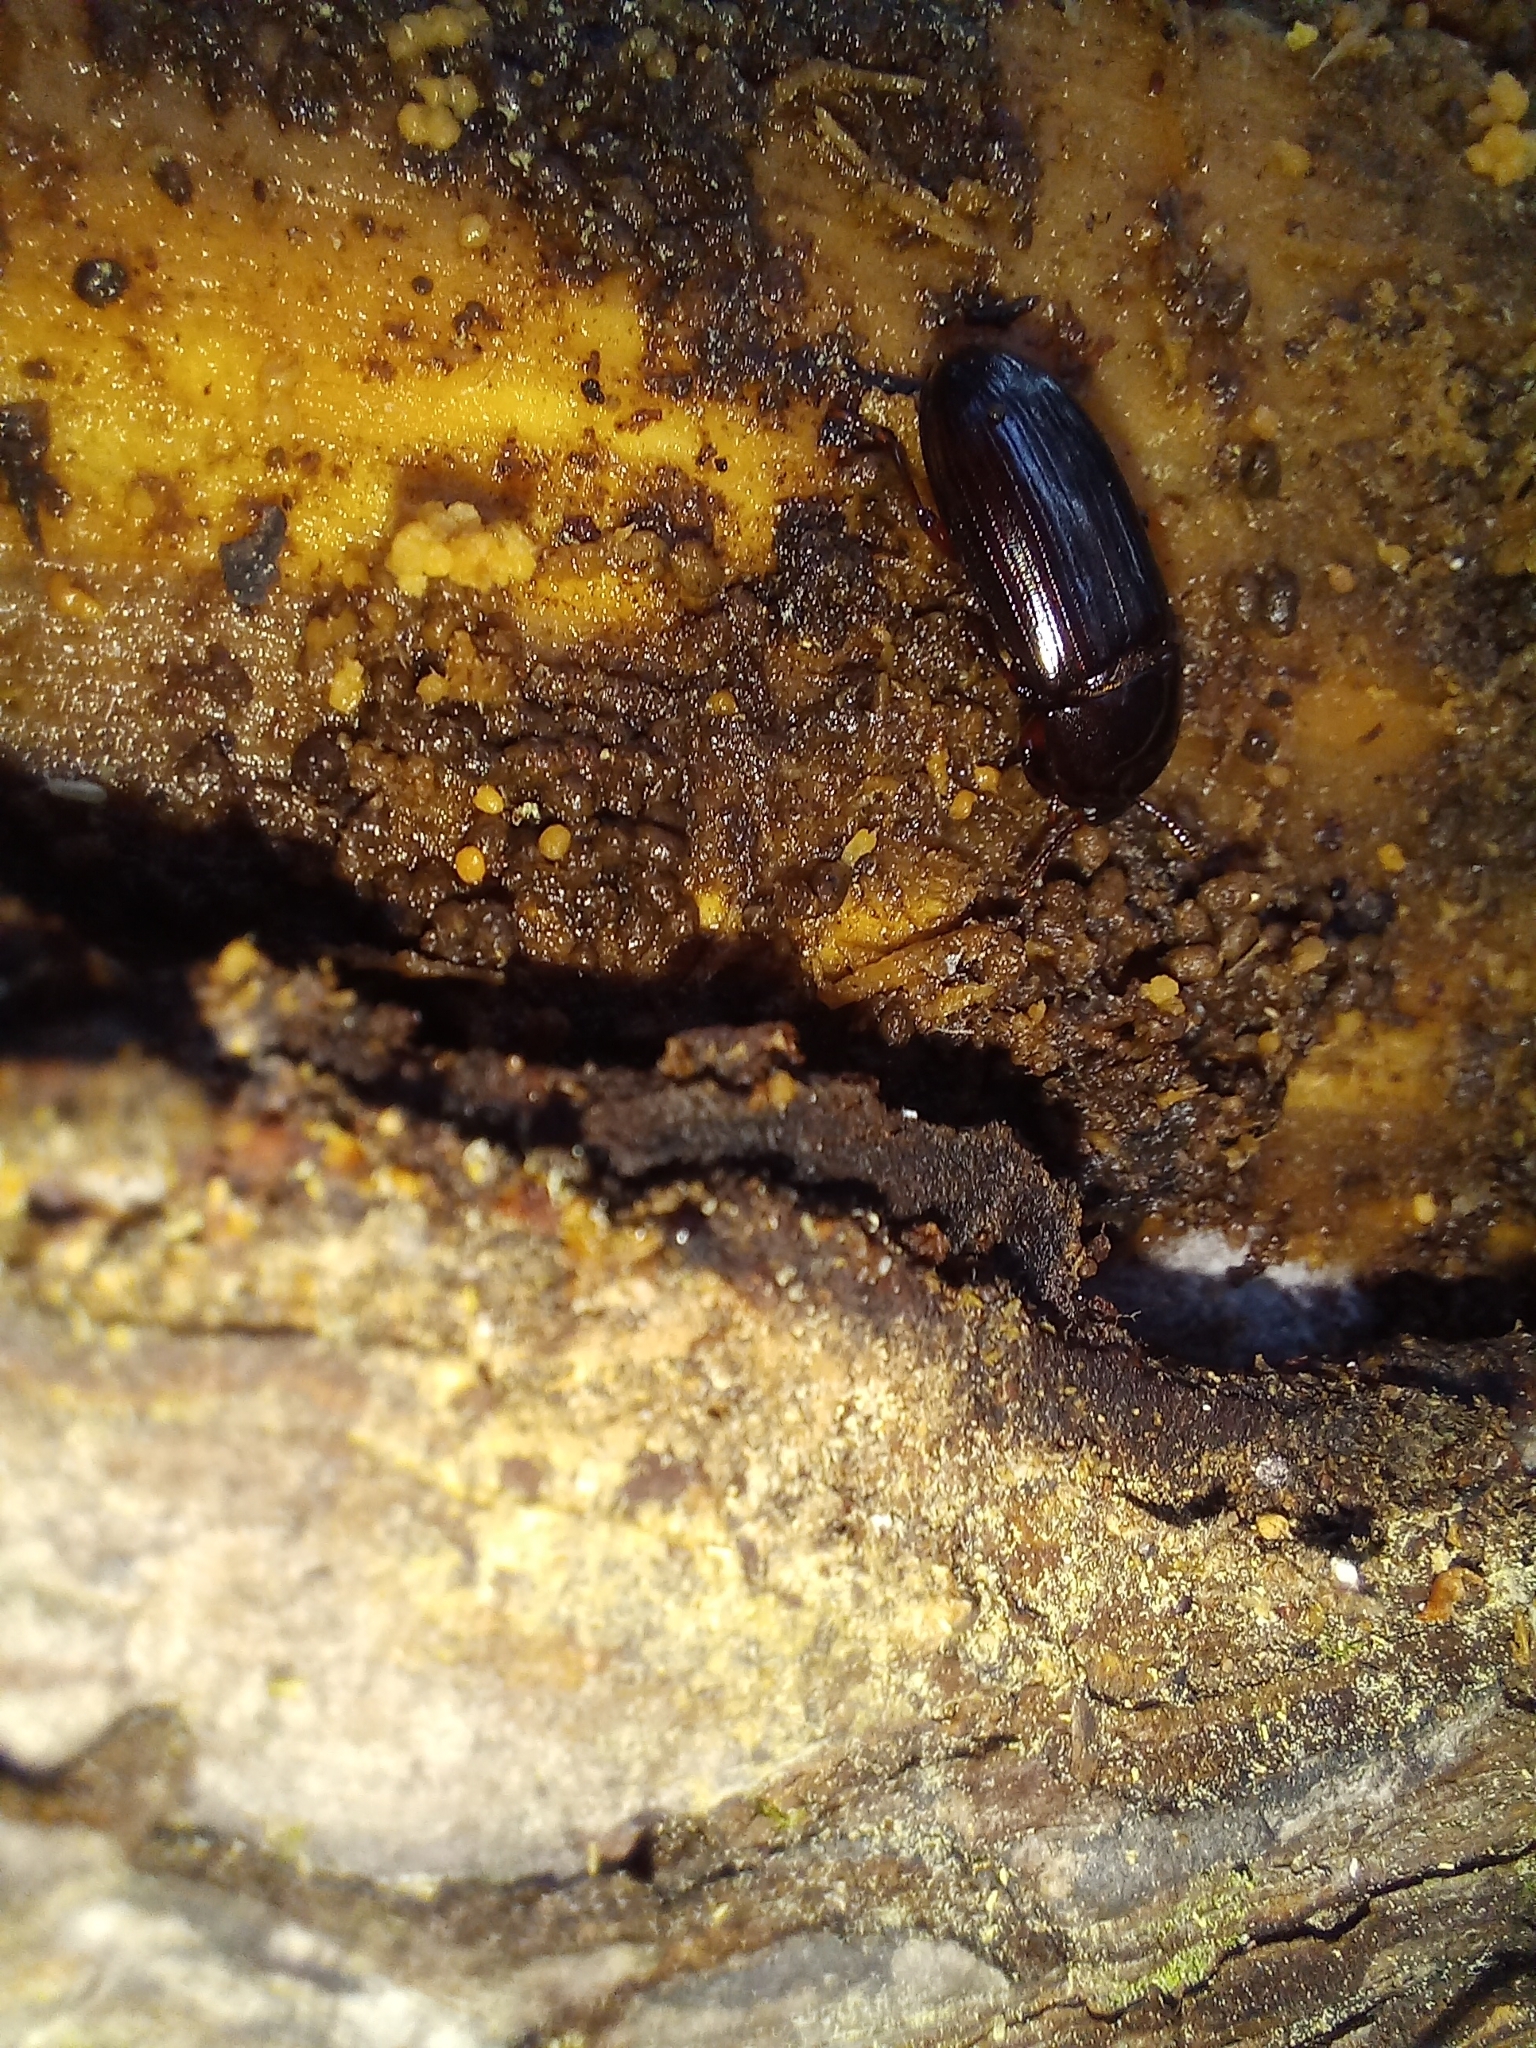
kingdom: Animalia
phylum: Arthropoda
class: Insecta
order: Coleoptera
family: Tenebrionidae
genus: Uloma
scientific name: Uloma tenebrionoides
